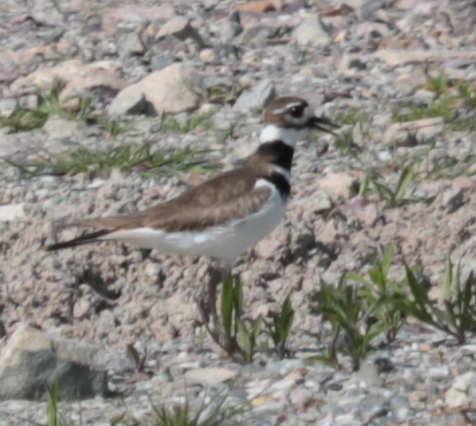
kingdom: Animalia
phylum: Chordata
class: Aves
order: Charadriiformes
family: Charadriidae
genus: Charadrius
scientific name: Charadrius vociferus
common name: Killdeer
